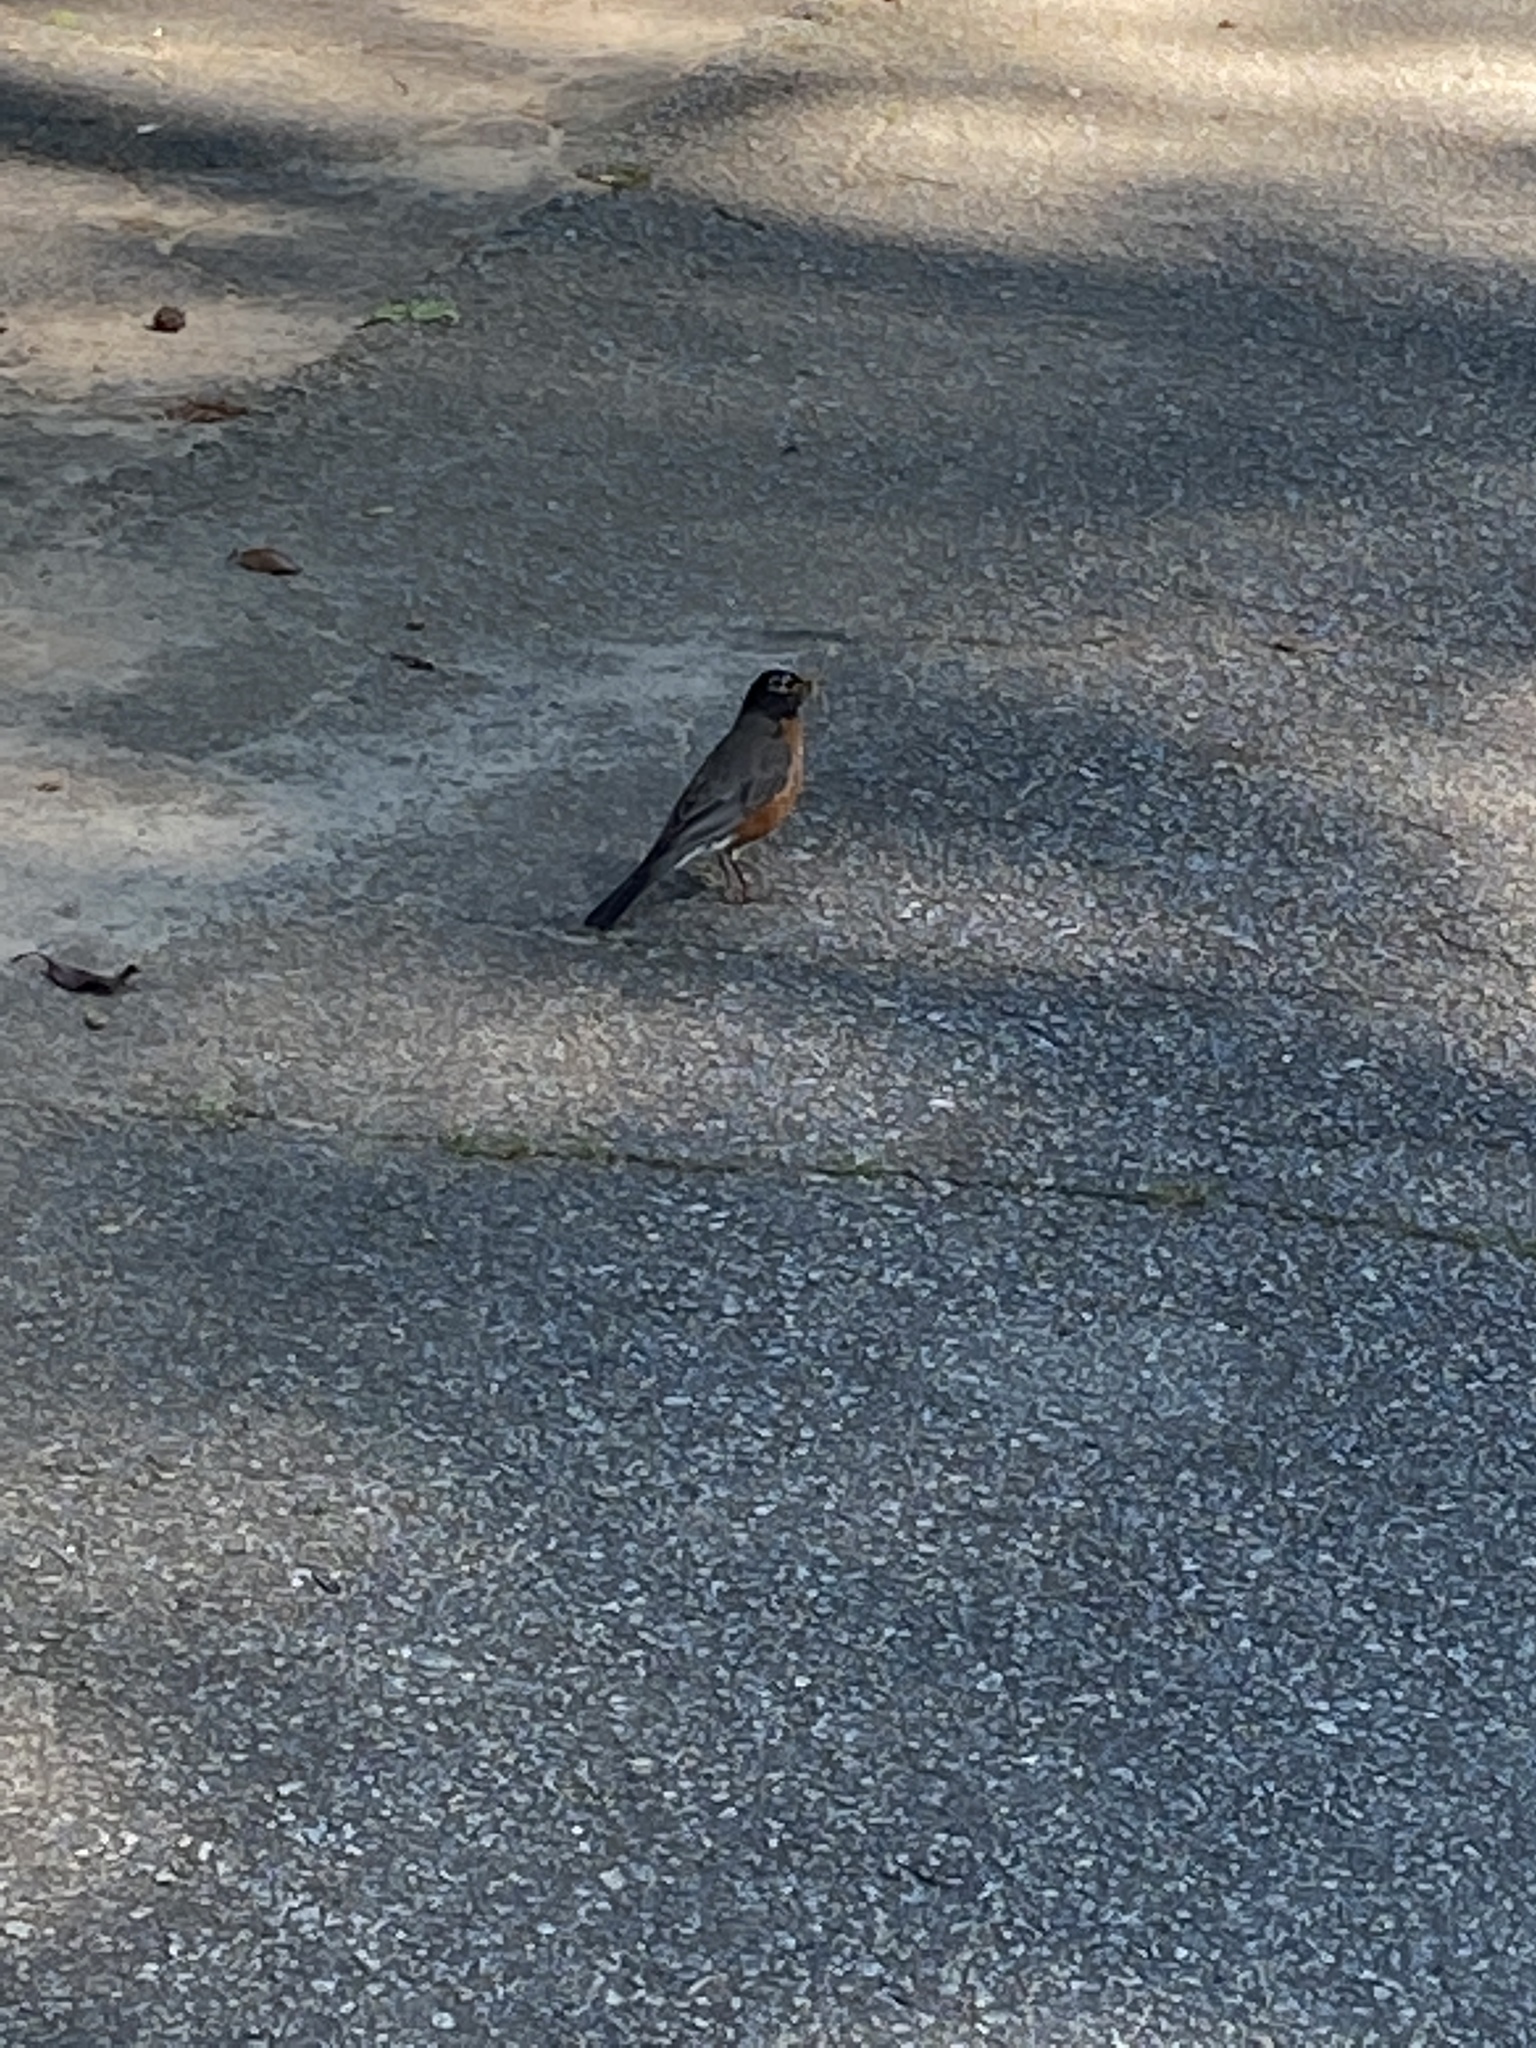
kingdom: Animalia
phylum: Chordata
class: Aves
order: Passeriformes
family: Turdidae
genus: Turdus
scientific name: Turdus migratorius
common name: American robin
